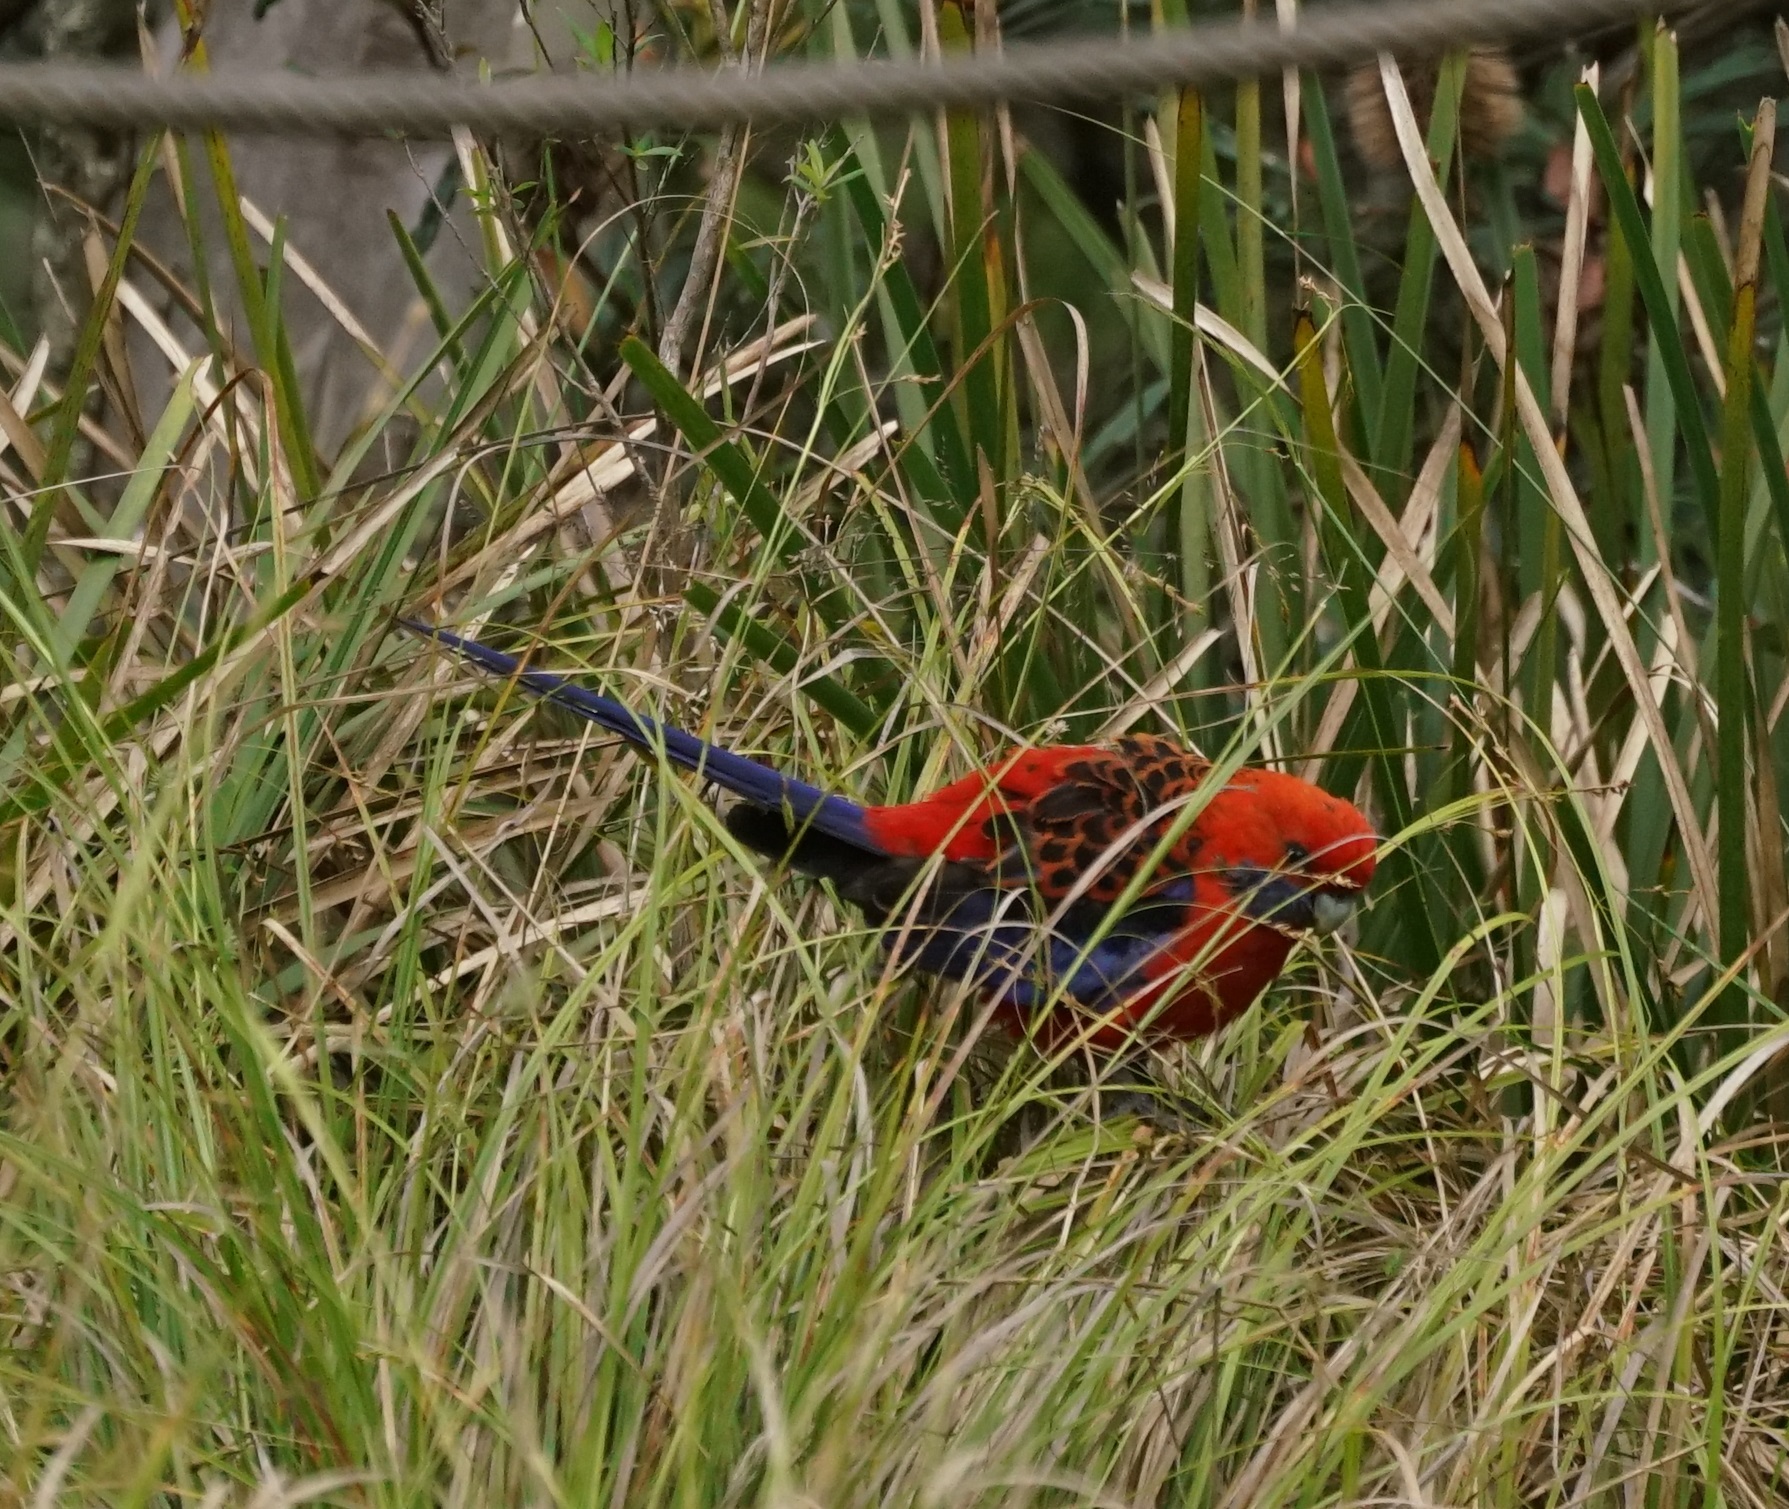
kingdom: Animalia
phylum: Chordata
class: Aves
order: Psittaciformes
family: Psittacidae
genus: Platycercus
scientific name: Platycercus elegans
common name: Crimson rosella
